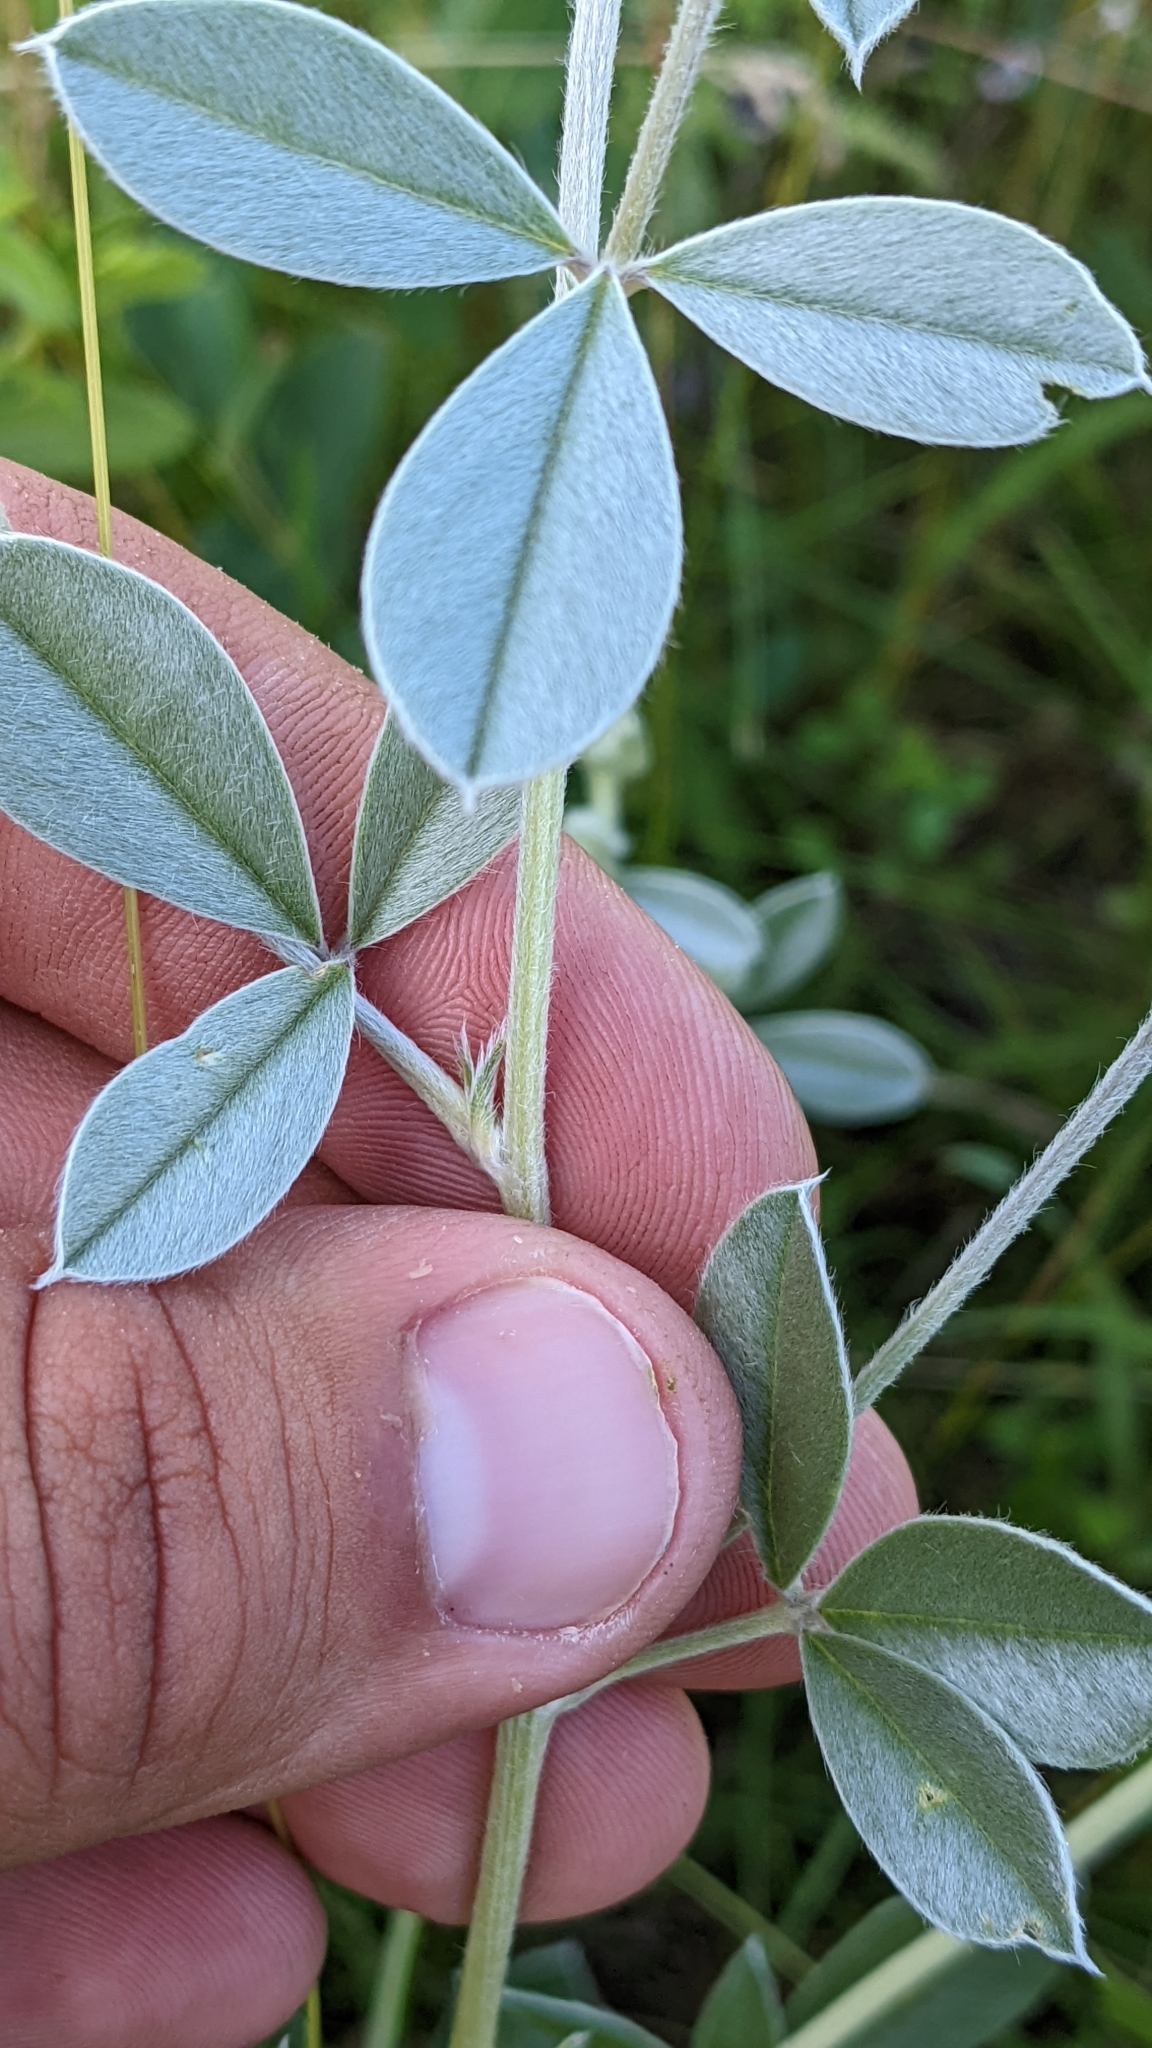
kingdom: Plantae
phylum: Tracheophyta
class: Magnoliopsida
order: Fabales
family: Fabaceae
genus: Pediomelum
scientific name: Pediomelum argophyllum
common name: Silver-leaved indian breadroot
